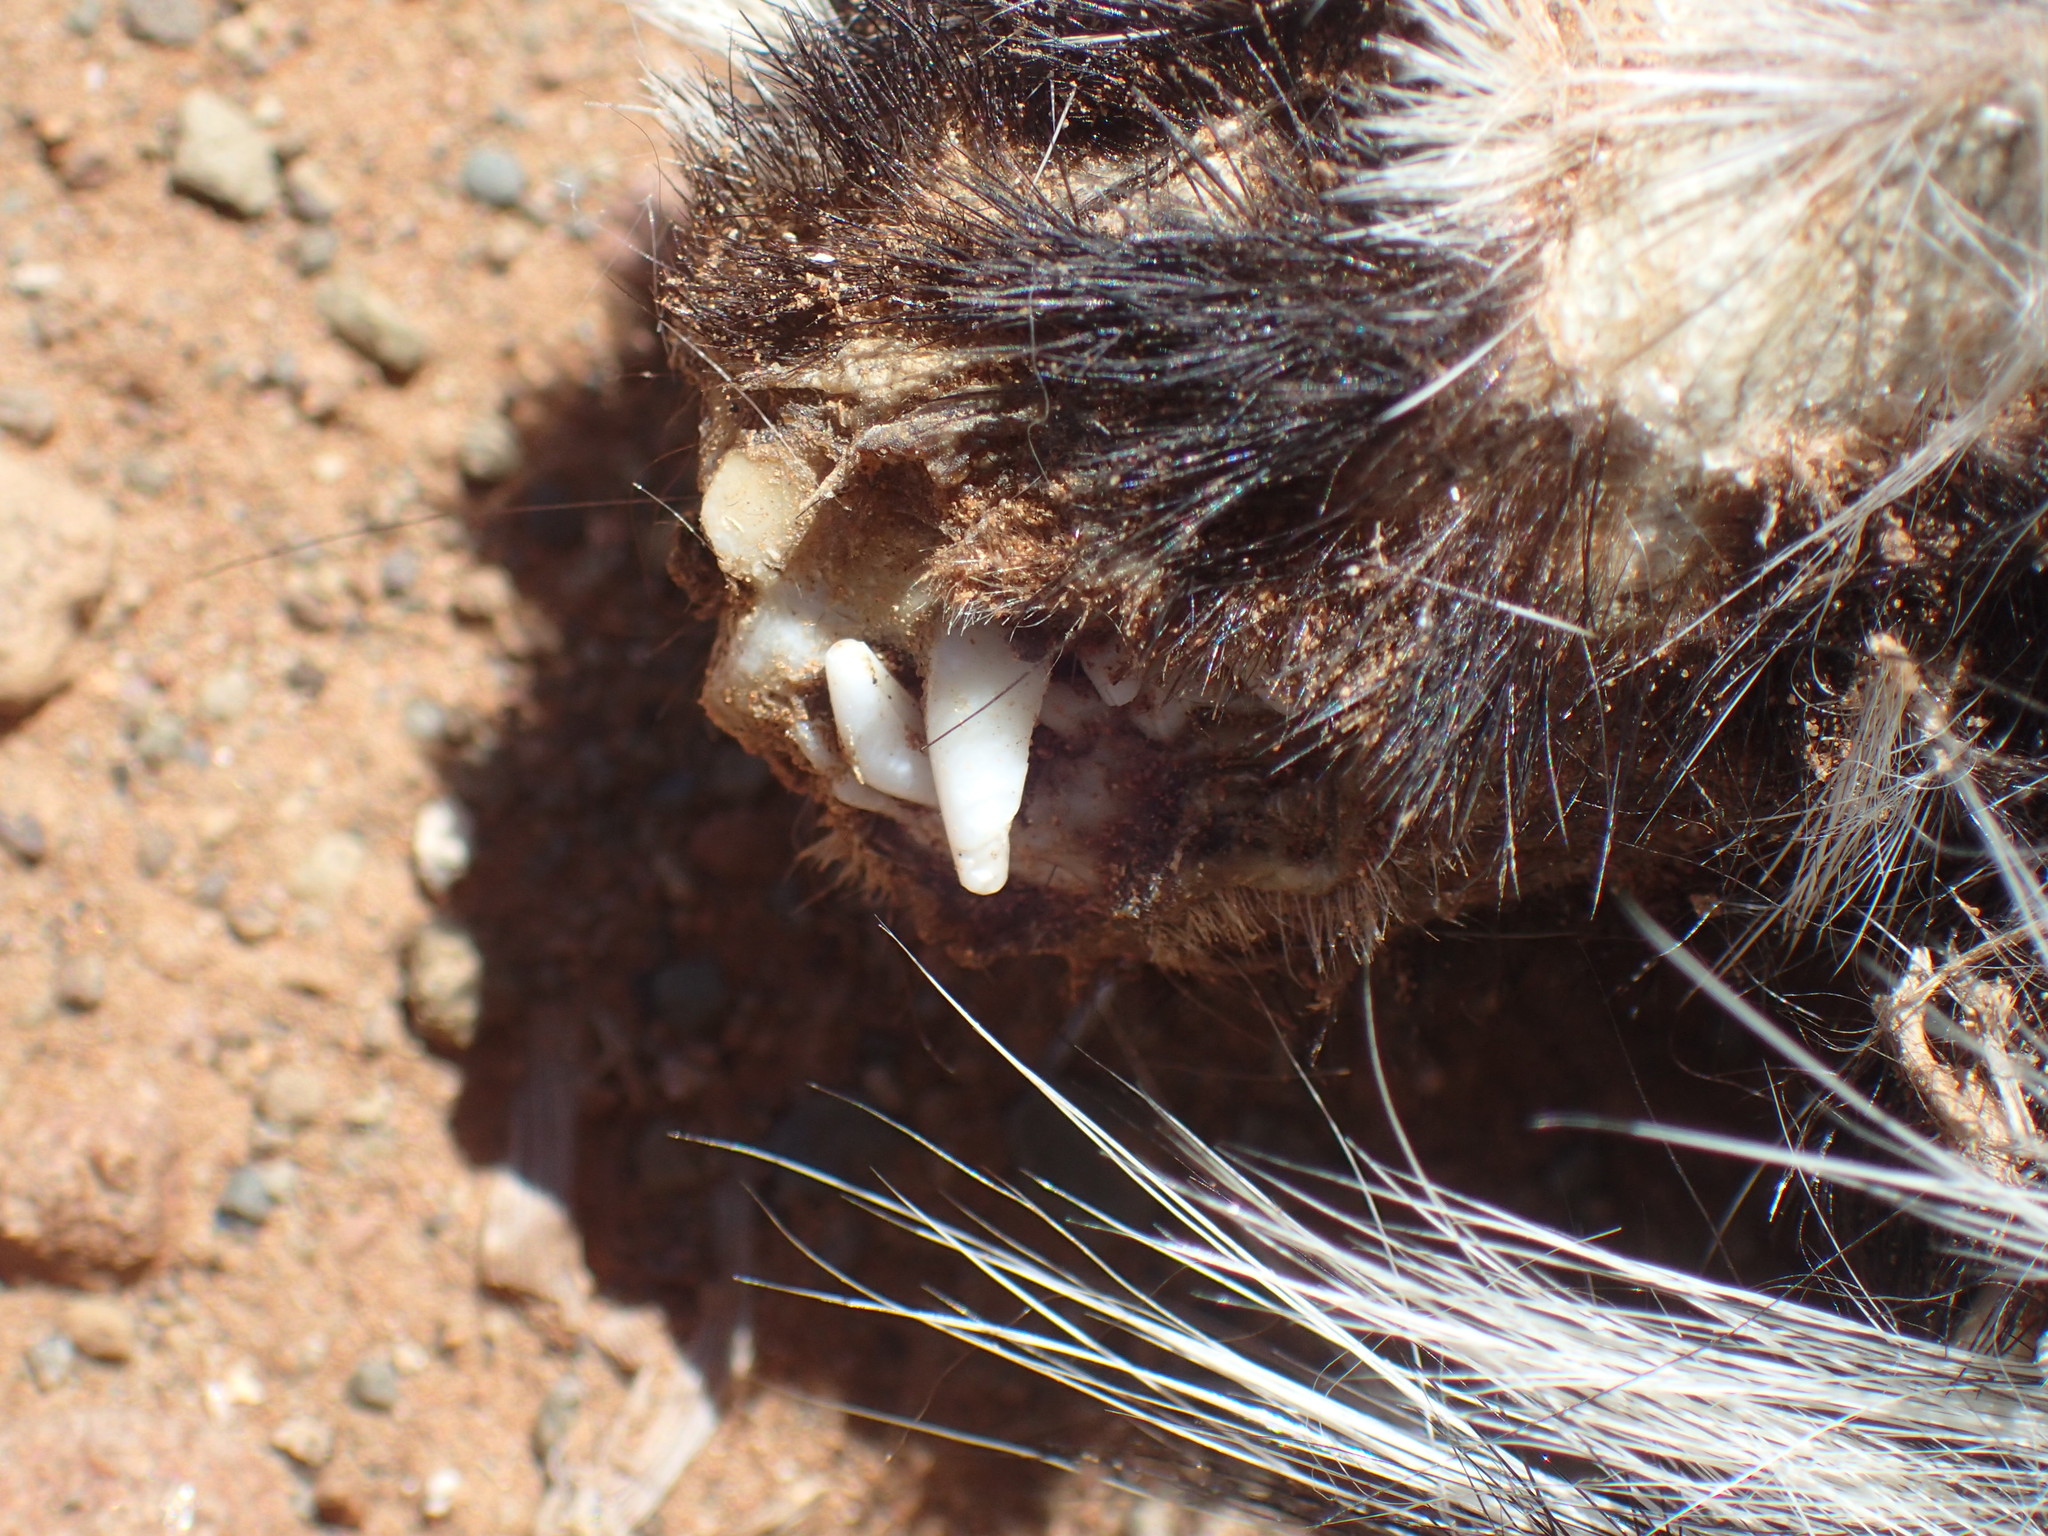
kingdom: Animalia
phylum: Chordata
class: Mammalia
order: Carnivora
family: Mustelidae
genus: Ictonyx
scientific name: Ictonyx striatus
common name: Striped polecat
